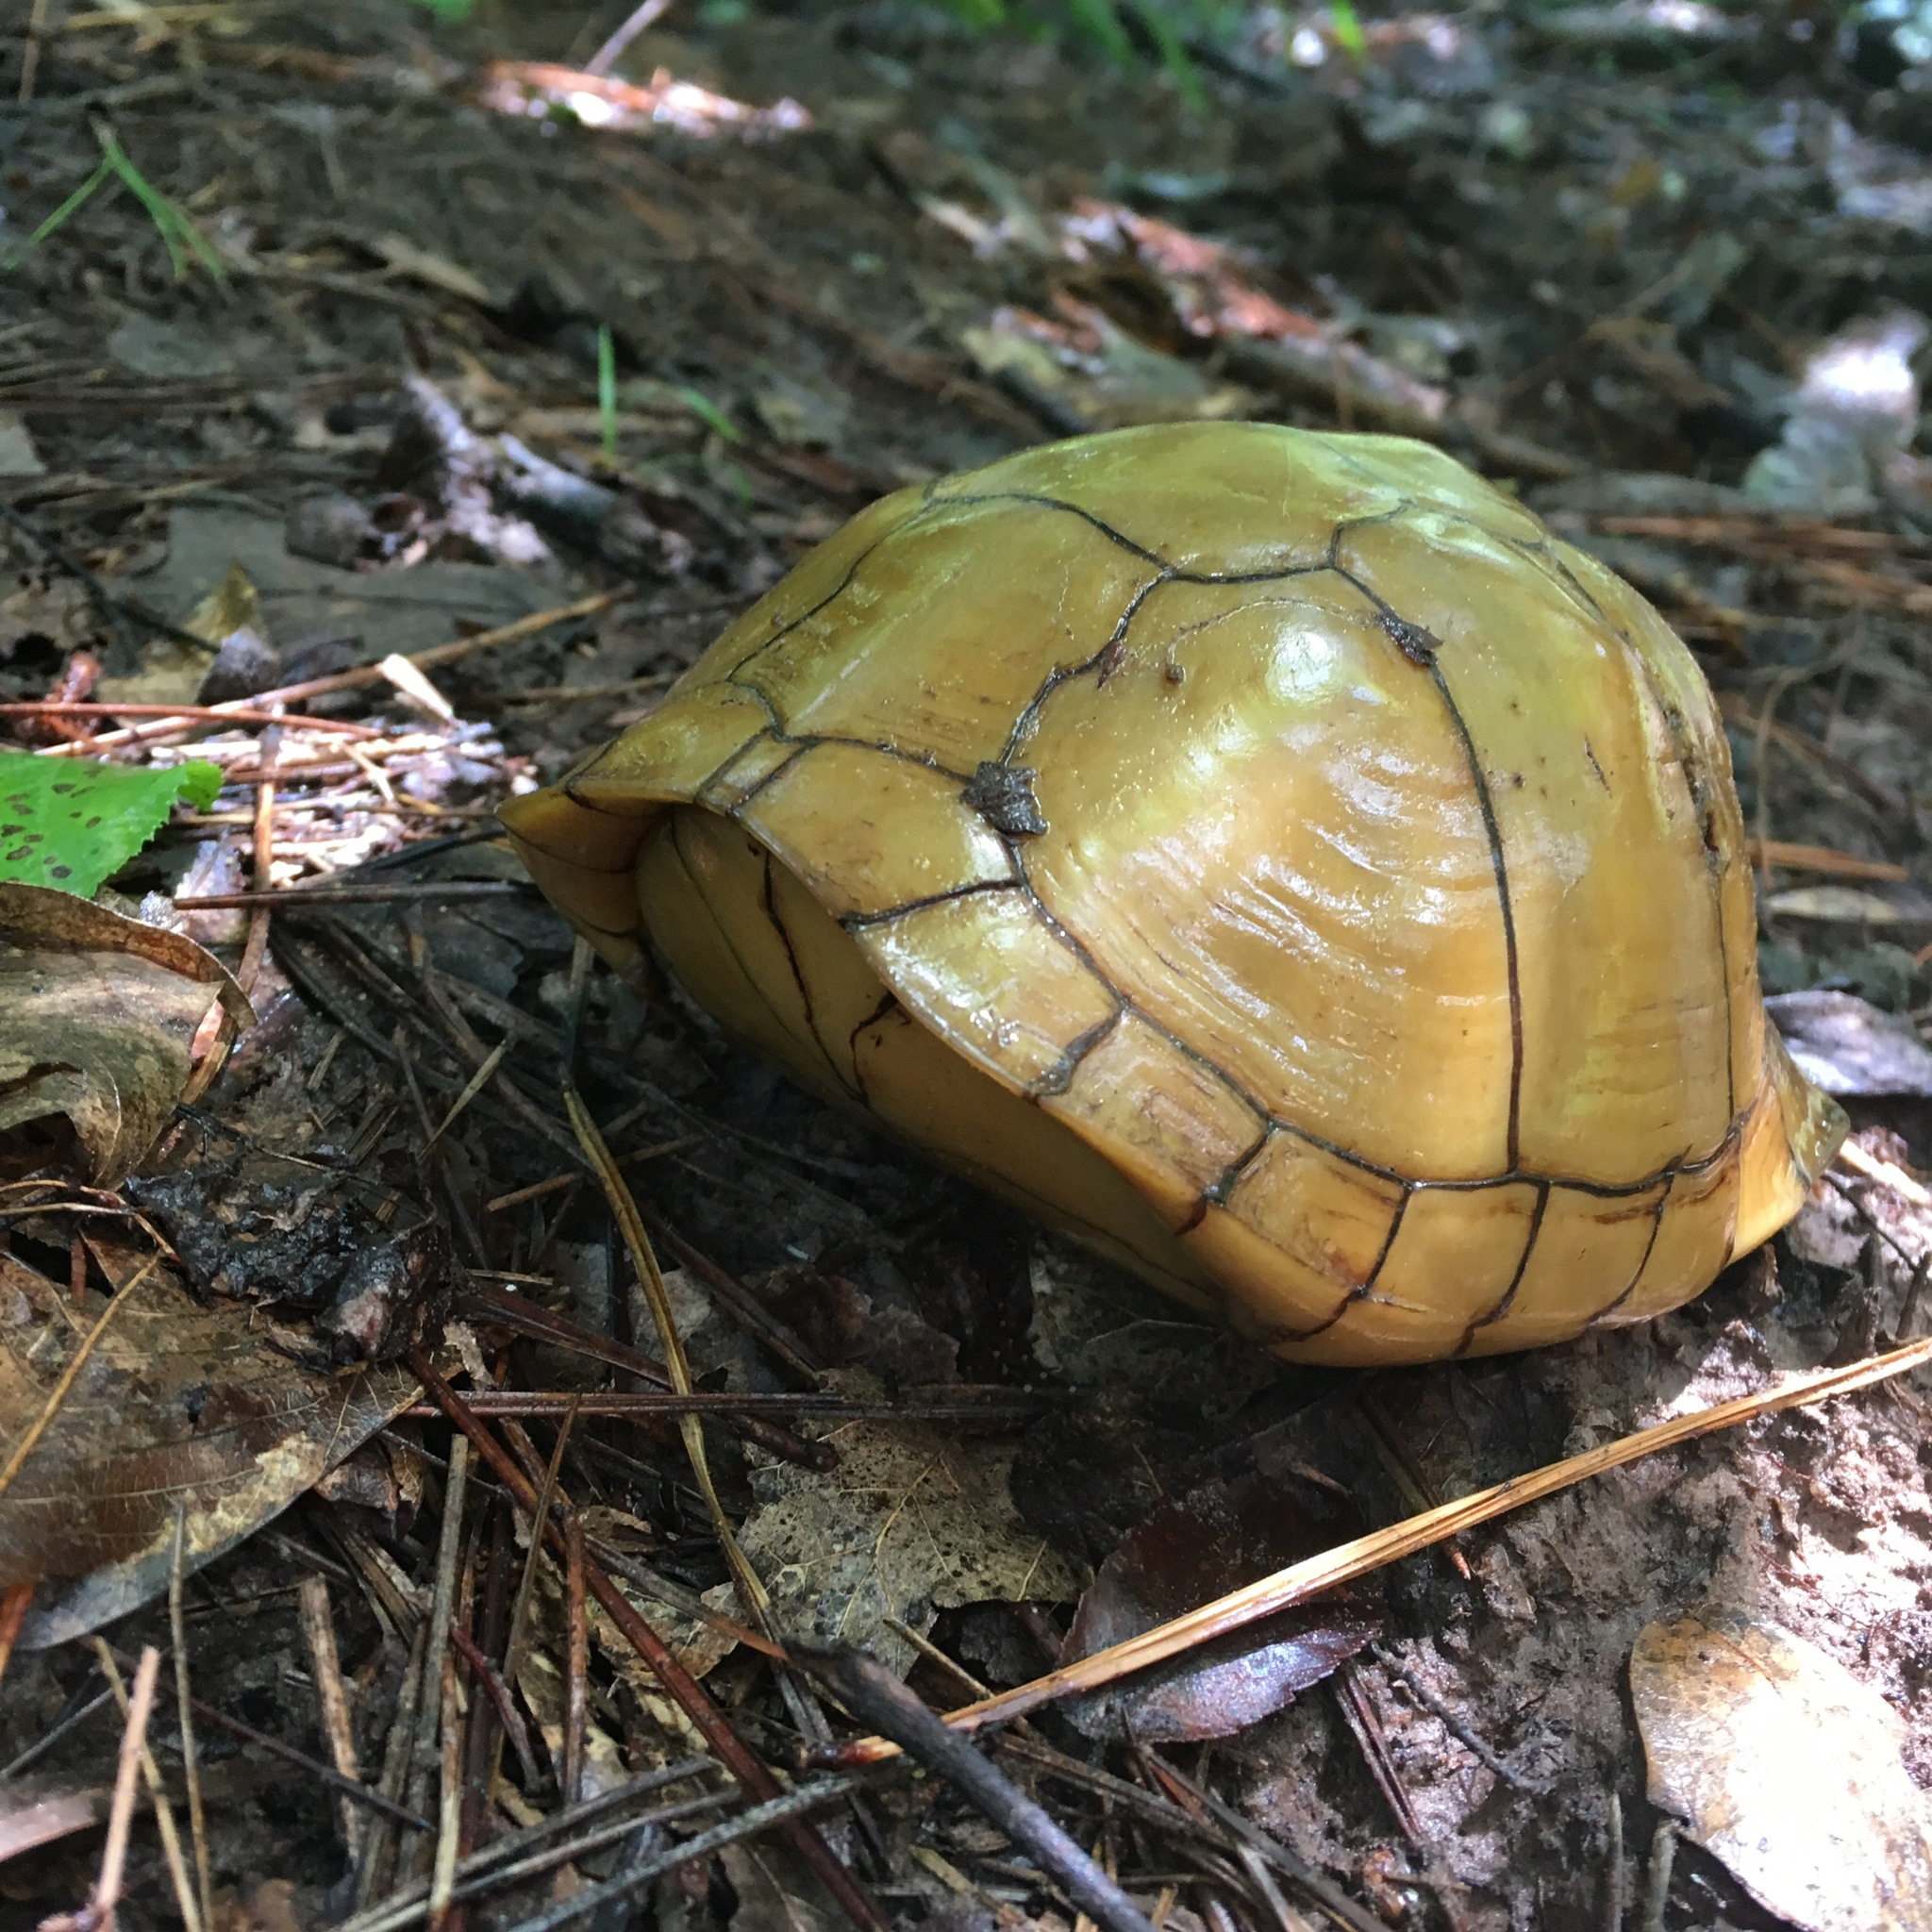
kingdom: Animalia
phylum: Chordata
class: Testudines
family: Emydidae
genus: Terrapene
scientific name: Terrapene carolina
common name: Common box turtle
